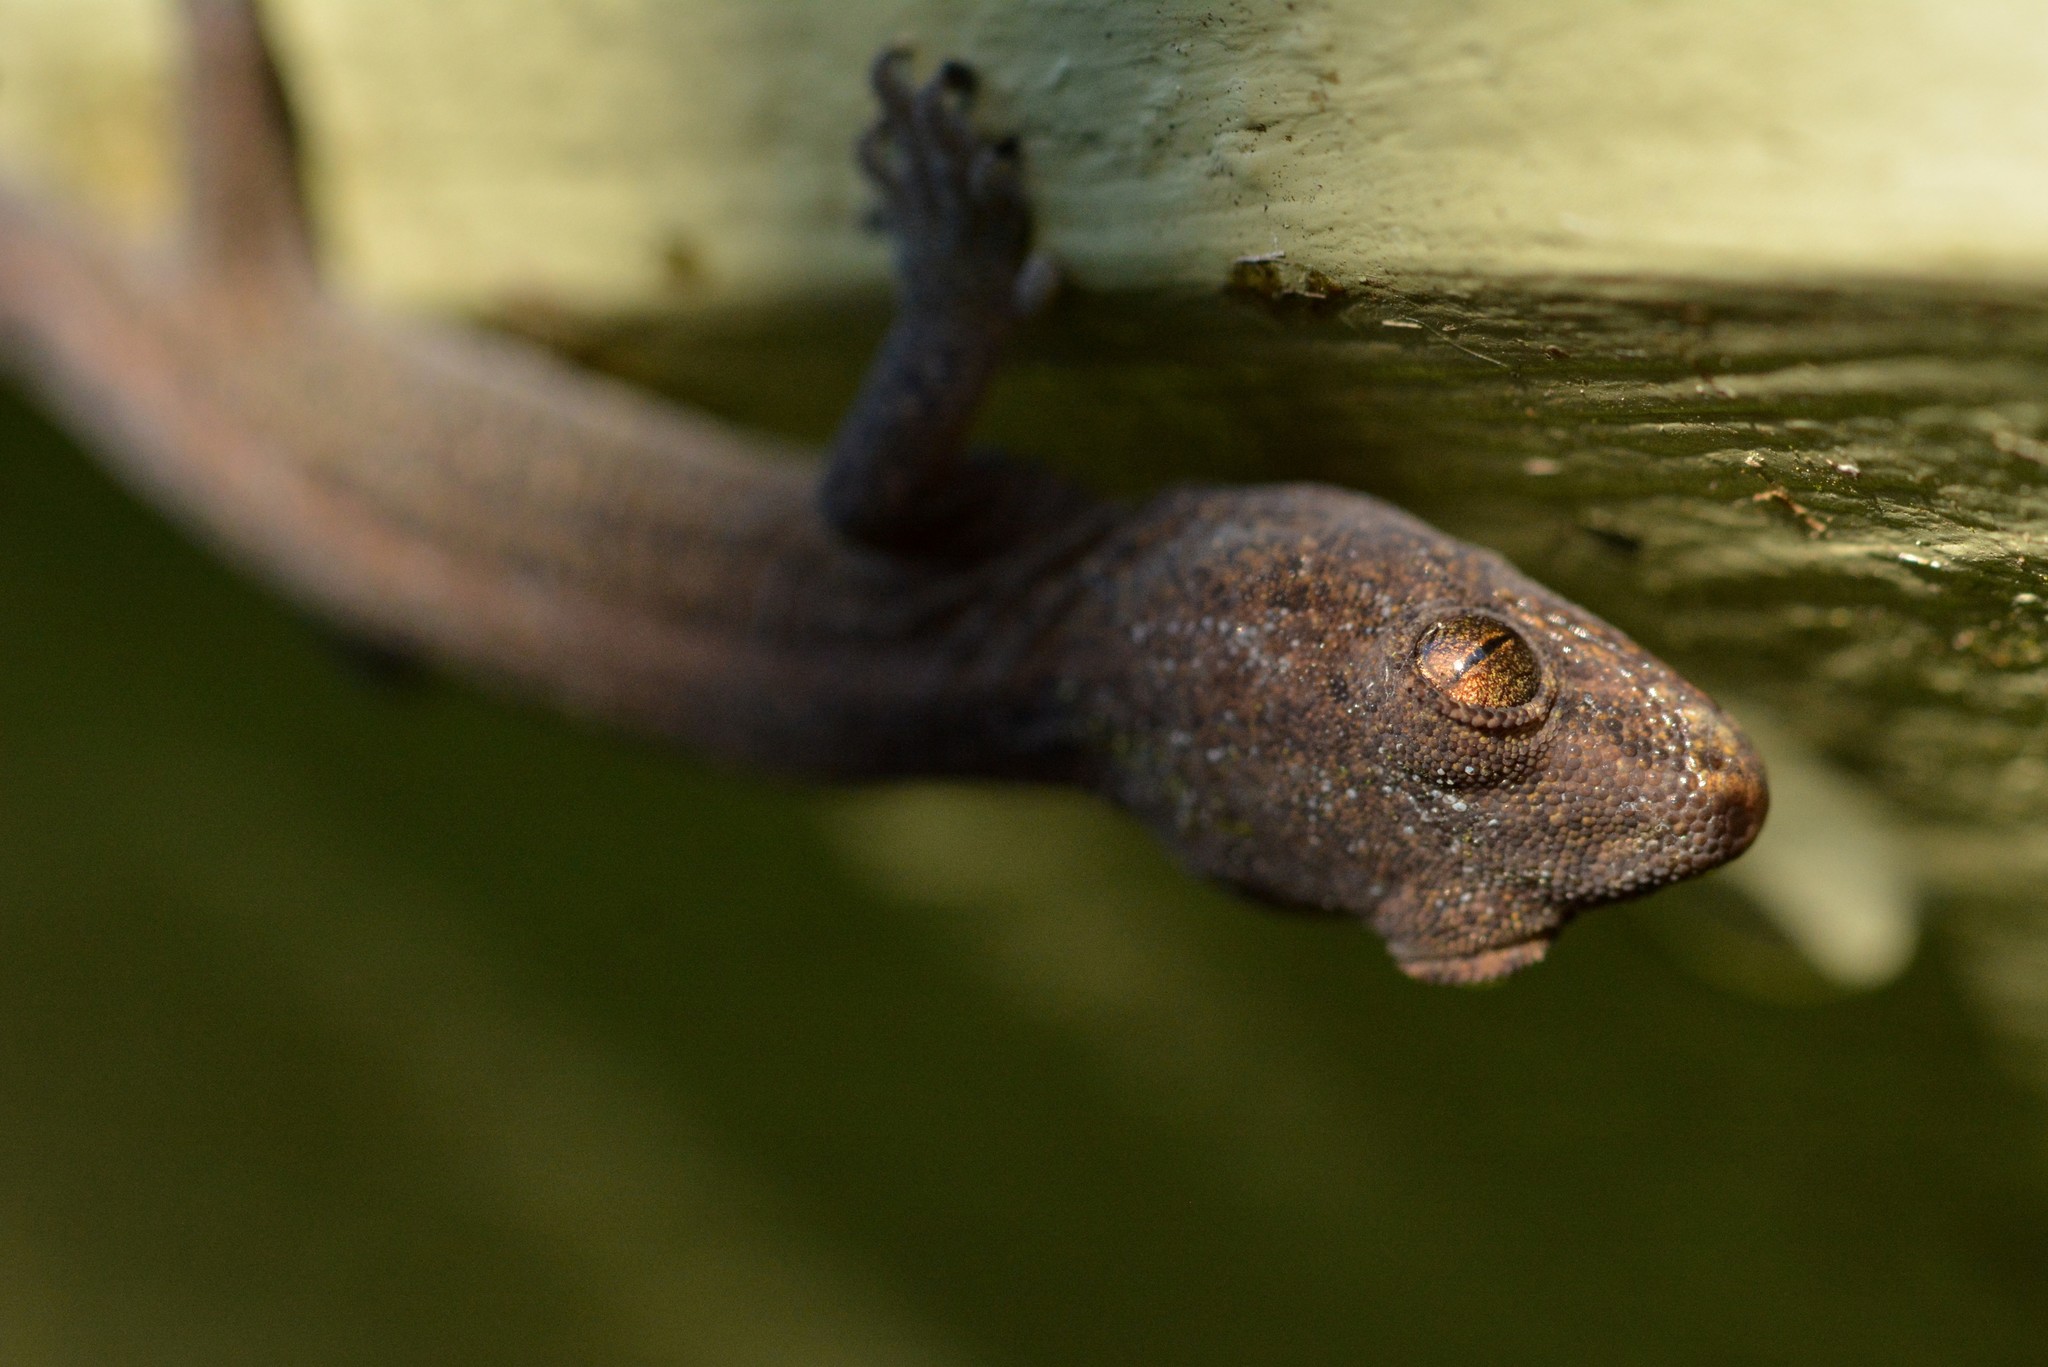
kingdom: Animalia
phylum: Chordata
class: Squamata
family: Diplodactylidae
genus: Woodworthia
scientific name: Woodworthia maculata
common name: Raukawa gecko
